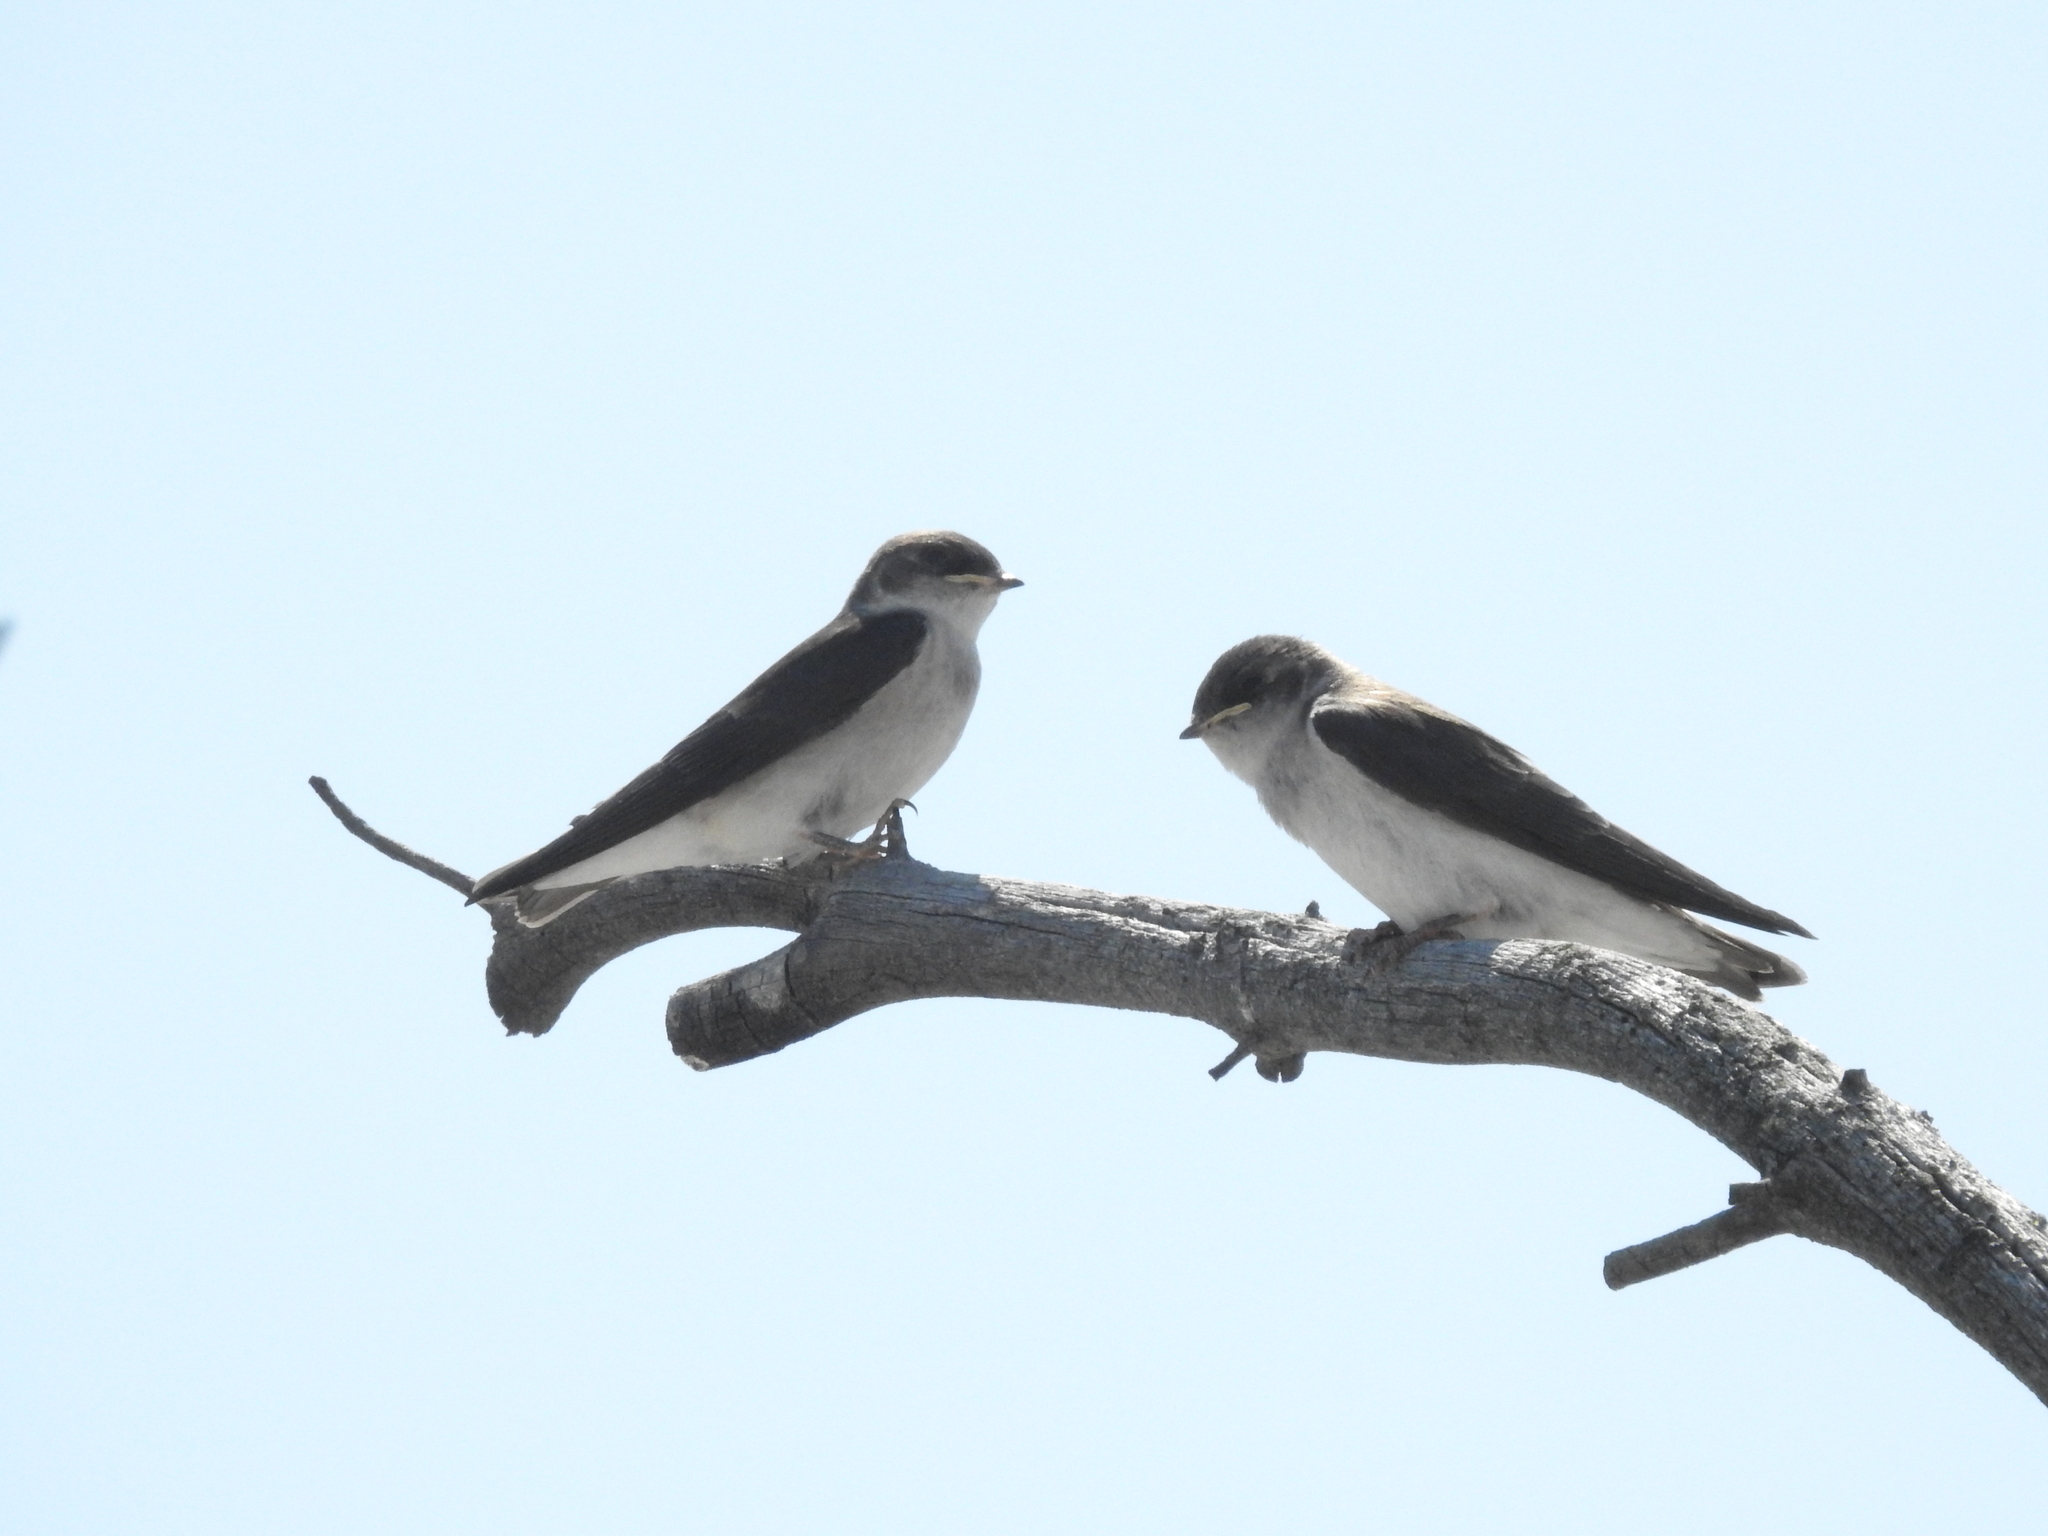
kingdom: Animalia
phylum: Chordata
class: Aves
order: Passeriformes
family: Hirundinidae
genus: Tachycineta
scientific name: Tachycineta bicolor
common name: Tree swallow
